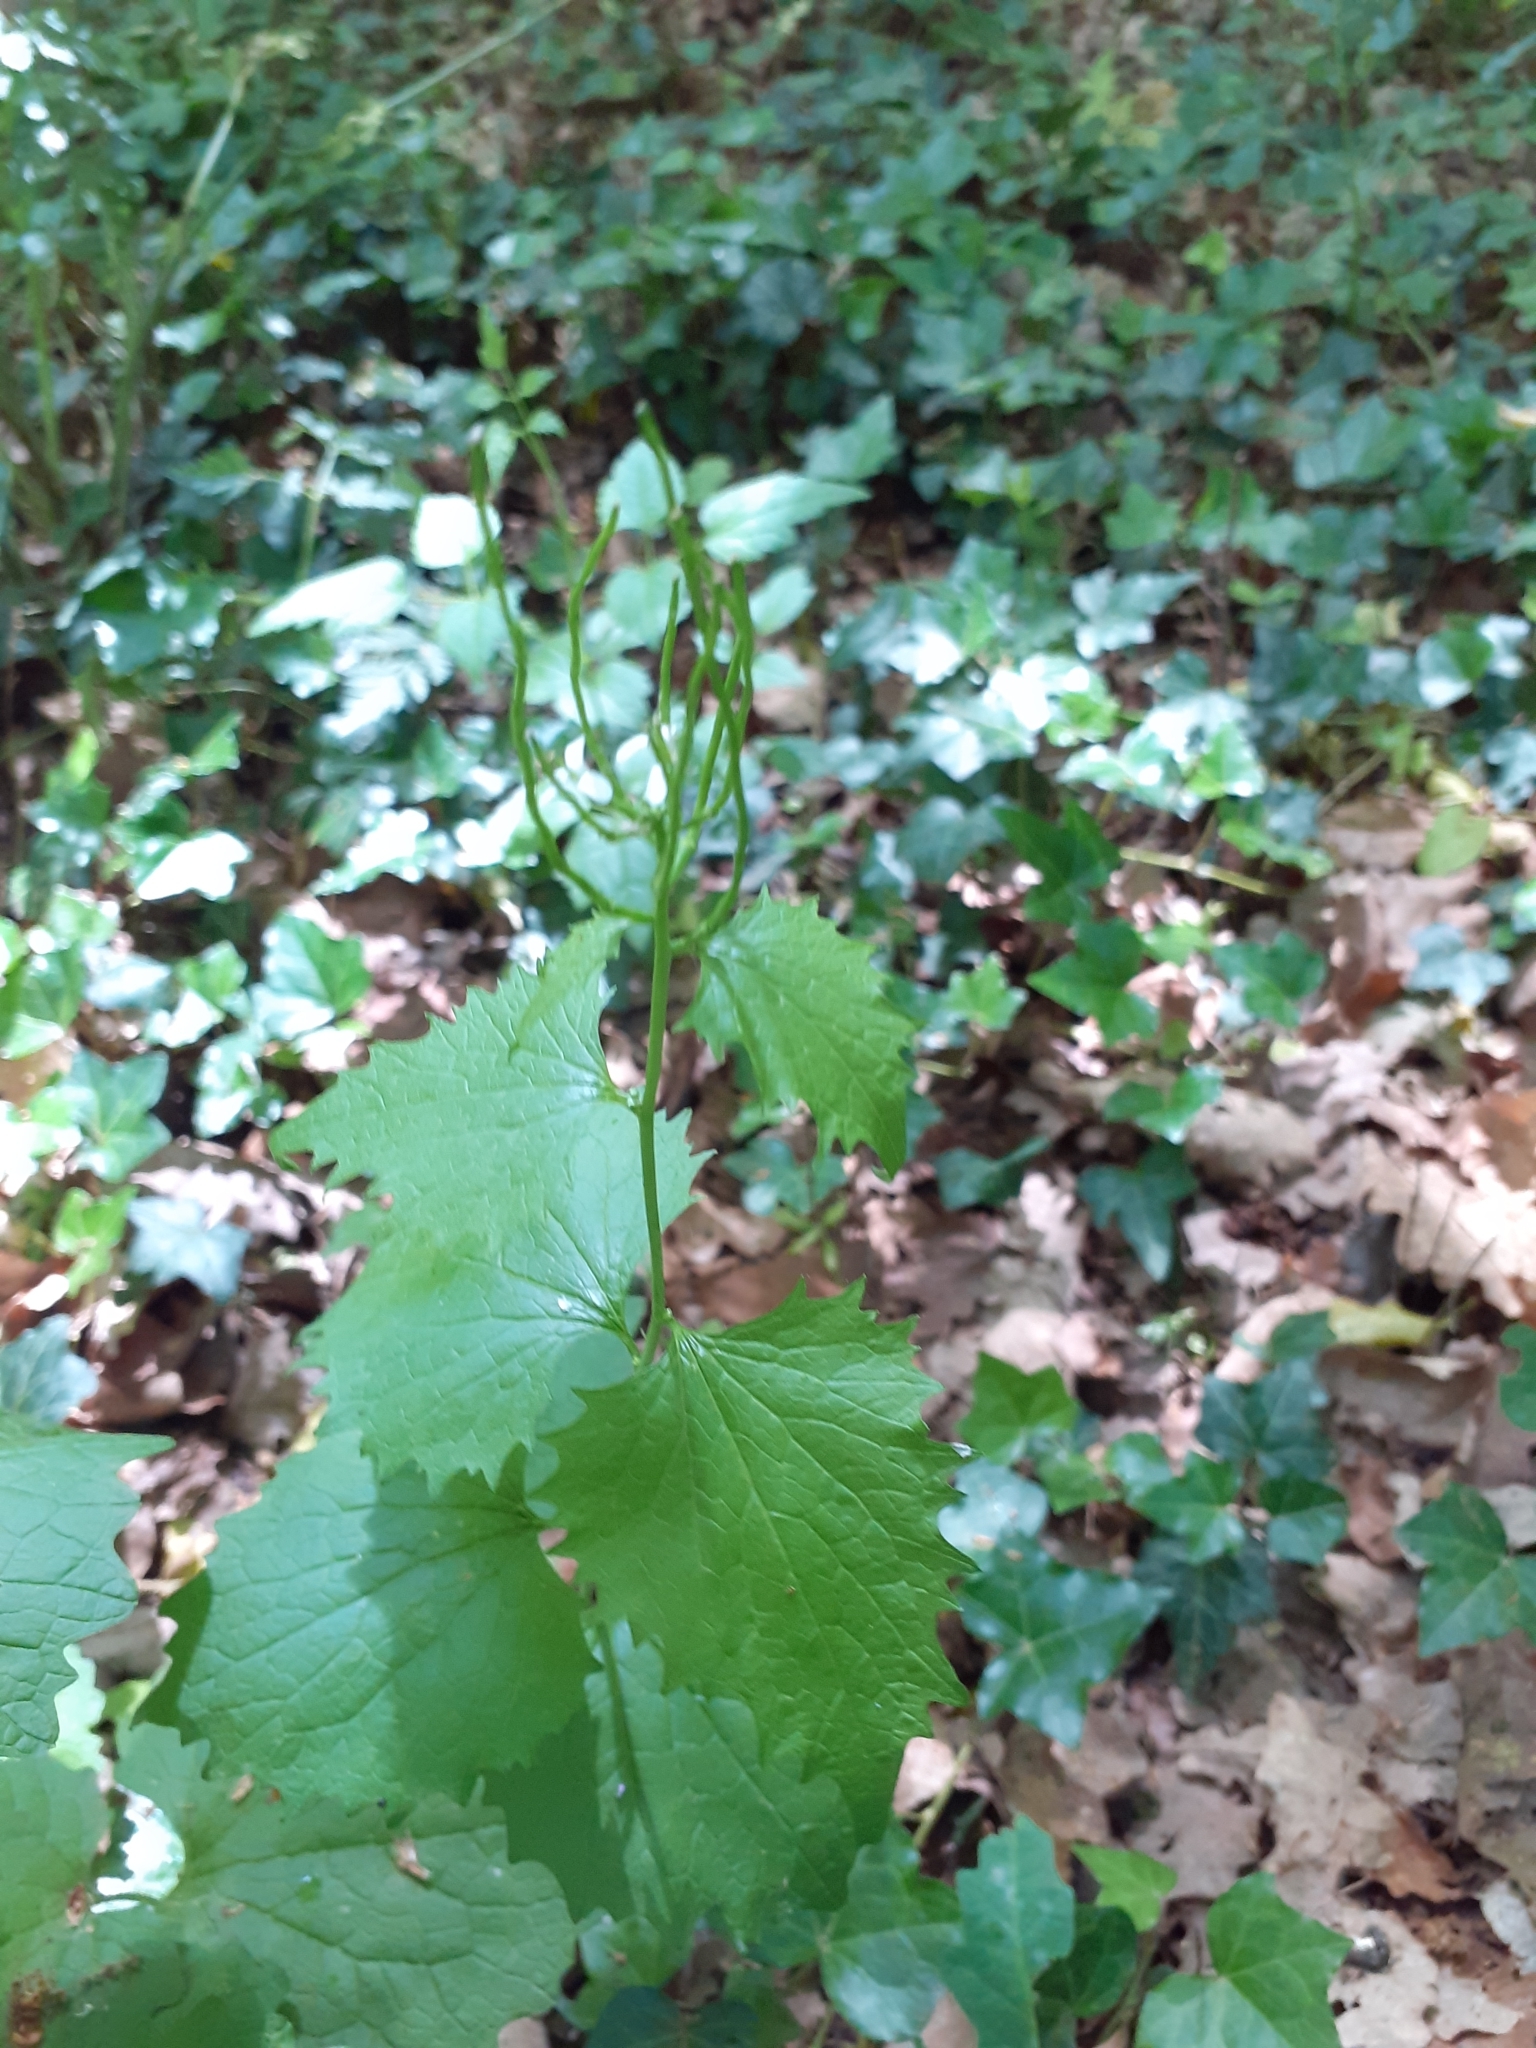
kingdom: Plantae
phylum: Tracheophyta
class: Magnoliopsida
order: Brassicales
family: Brassicaceae
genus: Alliaria
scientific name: Alliaria petiolata
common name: Garlic mustard
